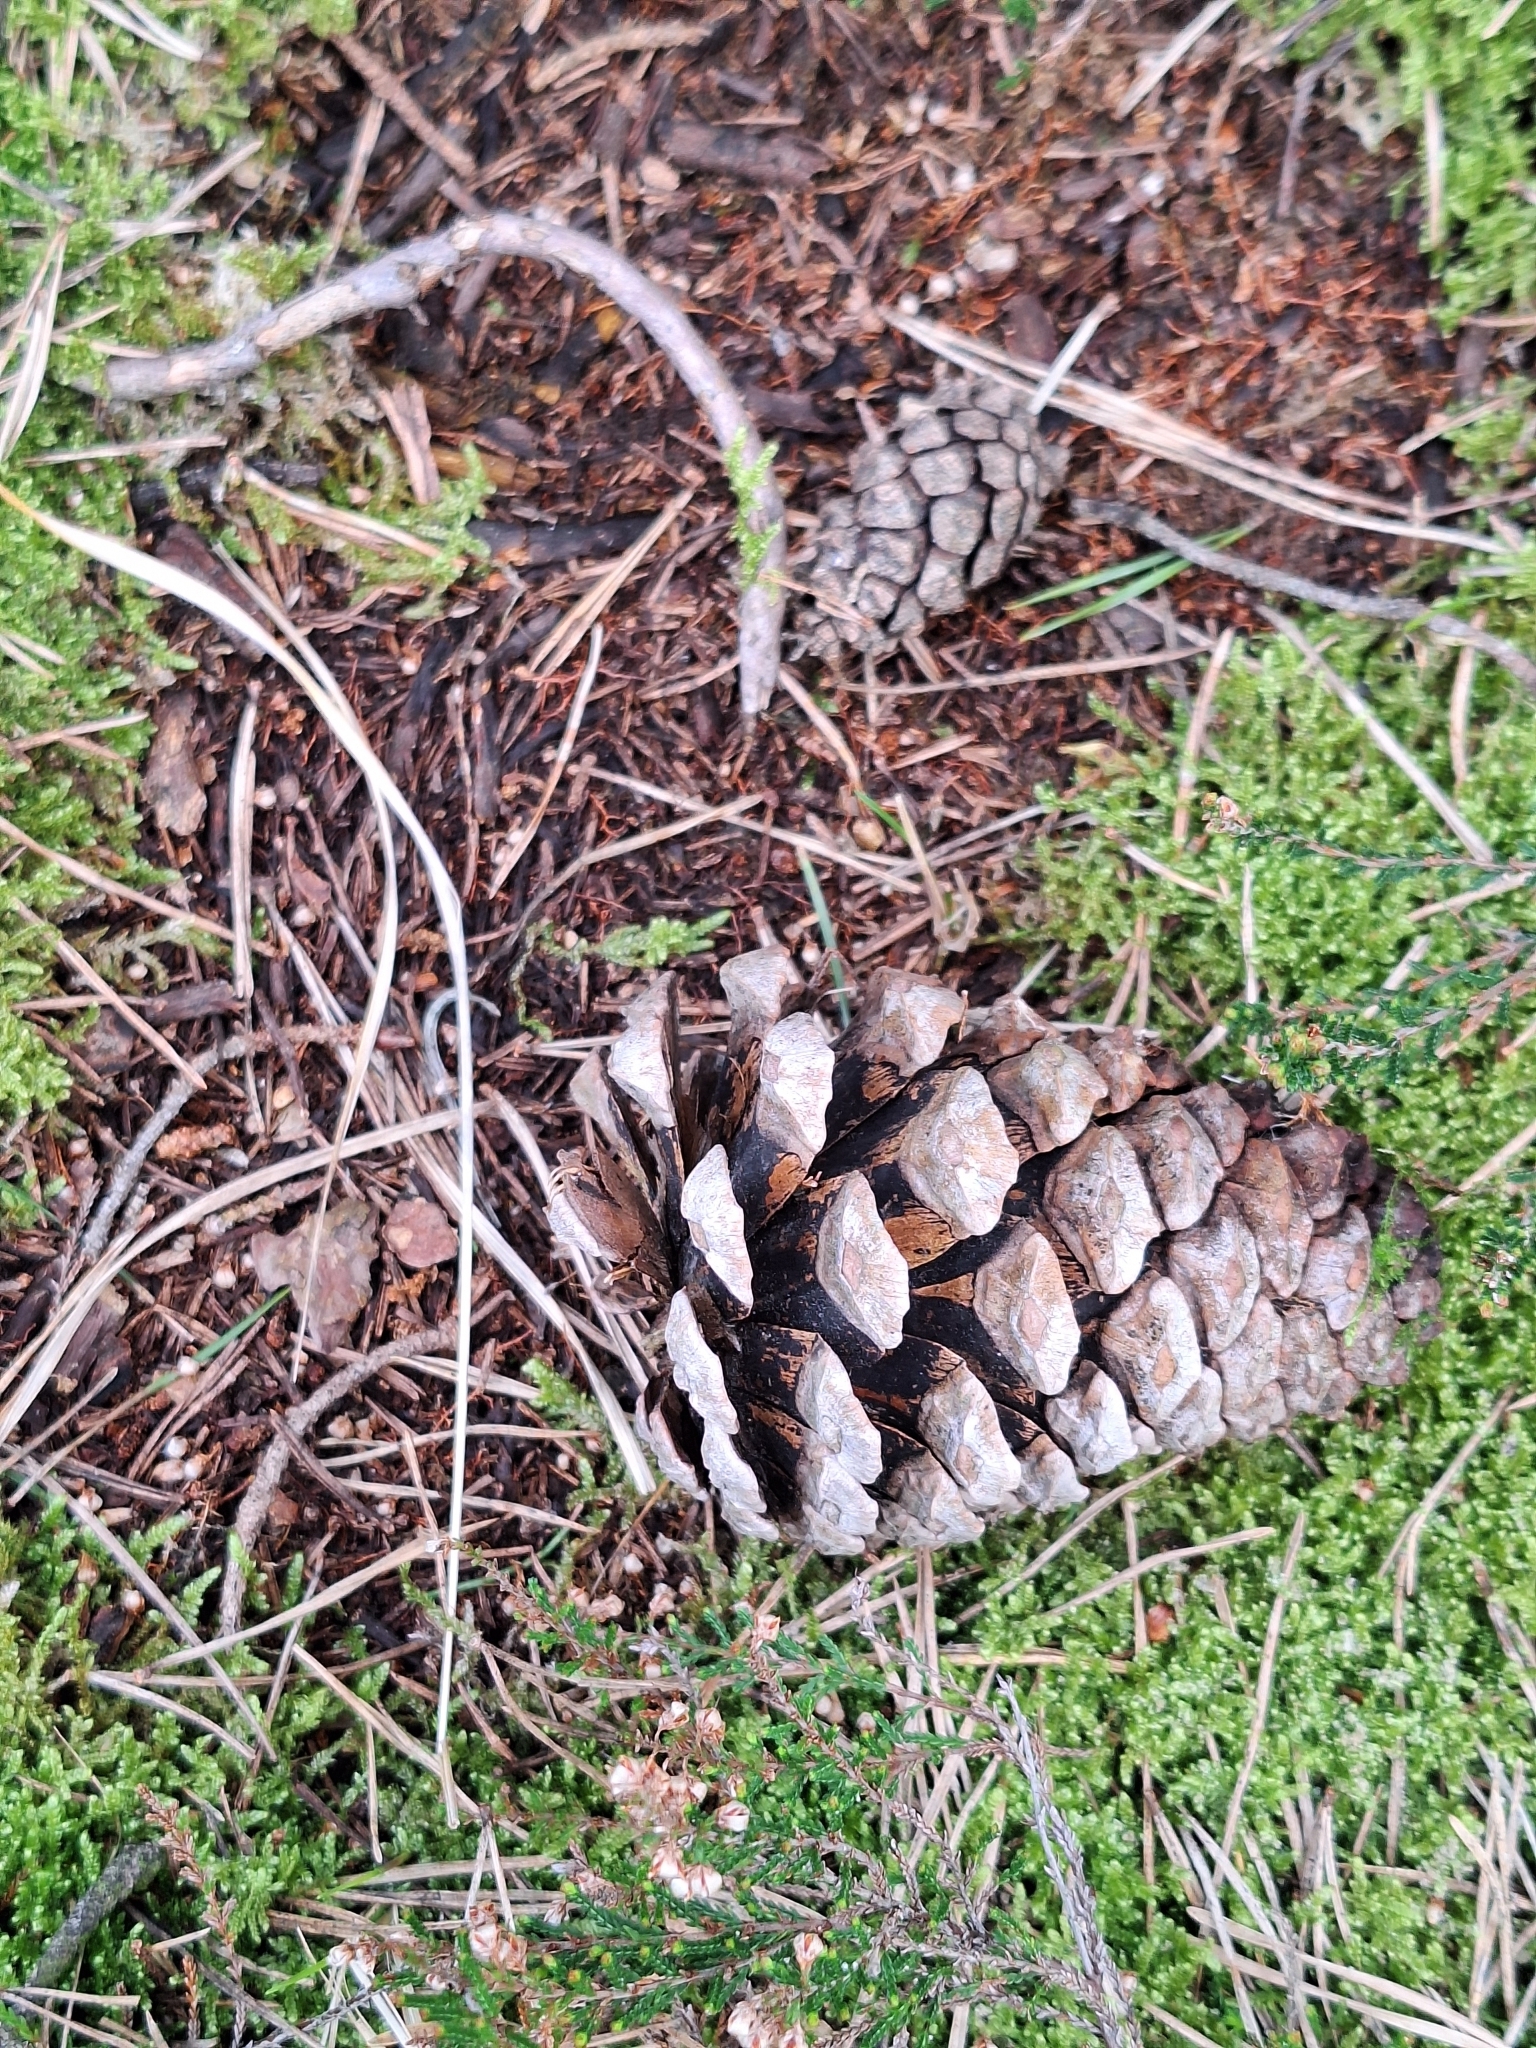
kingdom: Plantae
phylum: Tracheophyta
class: Pinopsida
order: Pinales
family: Pinaceae
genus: Pinus
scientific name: Pinus sylvestris
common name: Scots pine
